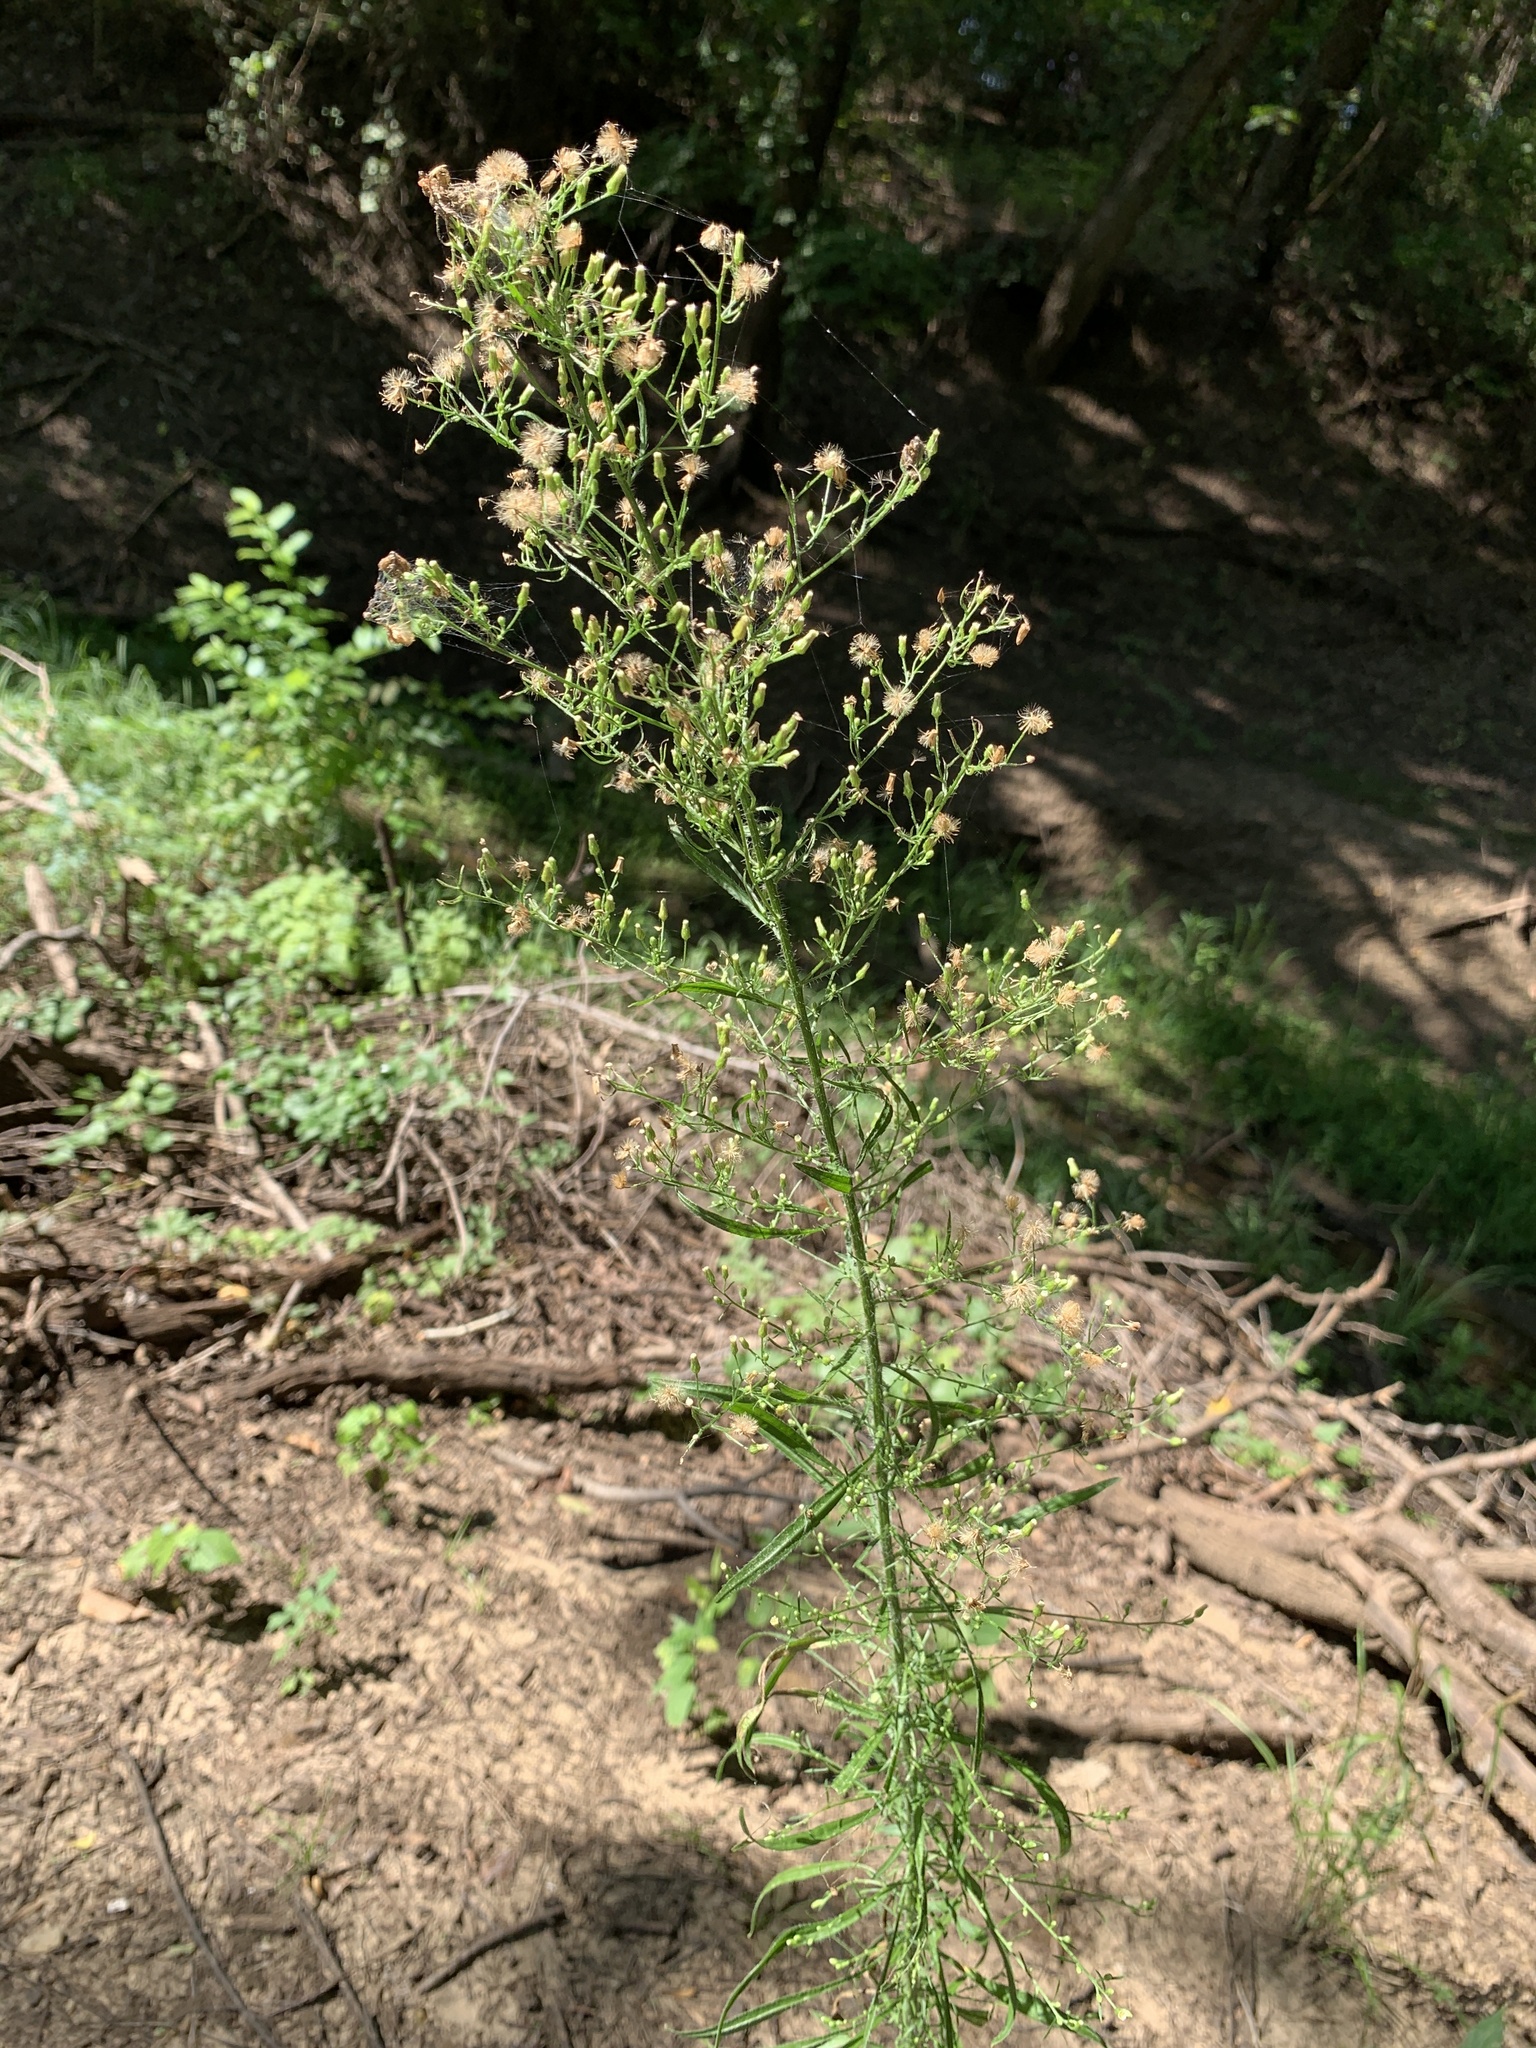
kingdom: Plantae
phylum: Tracheophyta
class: Magnoliopsida
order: Asterales
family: Asteraceae
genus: Erigeron
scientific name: Erigeron canadensis
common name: Canadian fleabane
